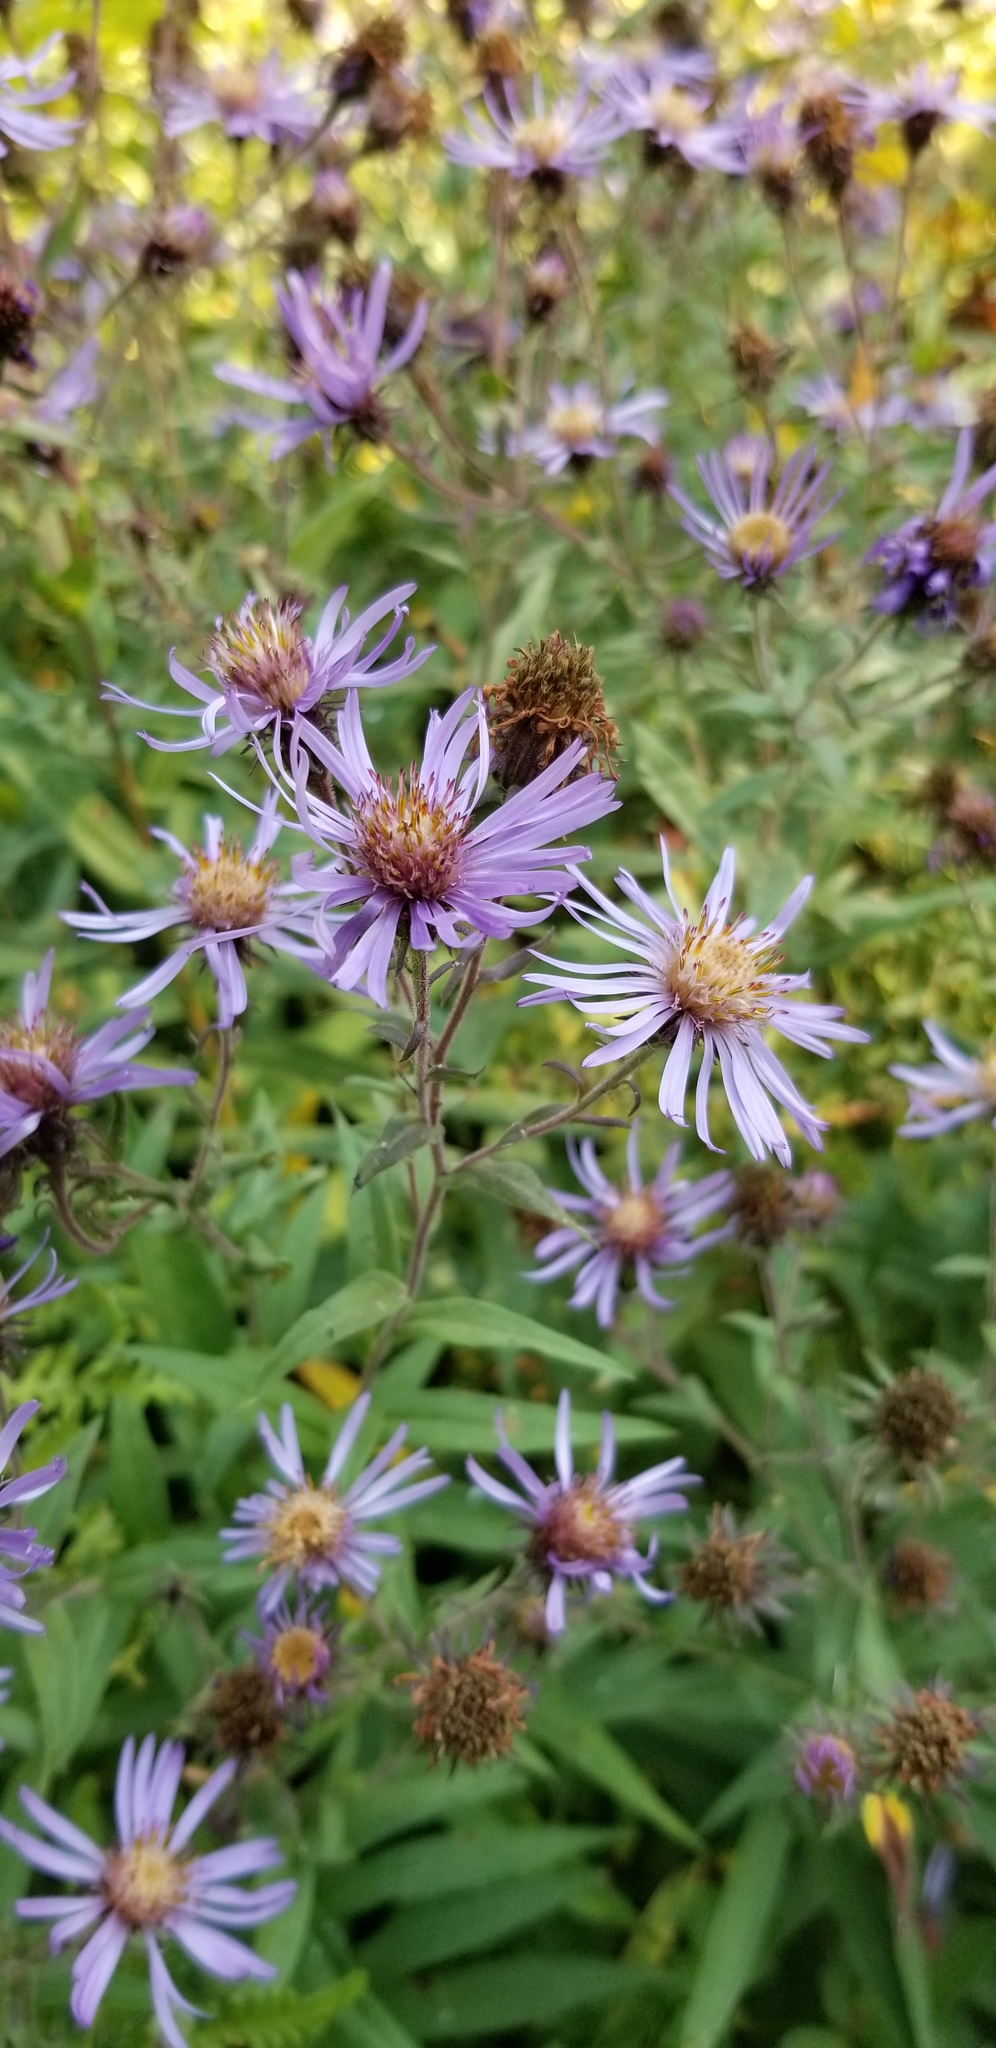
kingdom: Plantae
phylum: Tracheophyta
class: Magnoliopsida
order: Asterales
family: Asteraceae
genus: Canadanthus
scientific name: Canadanthus modestus
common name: Great northern aster
